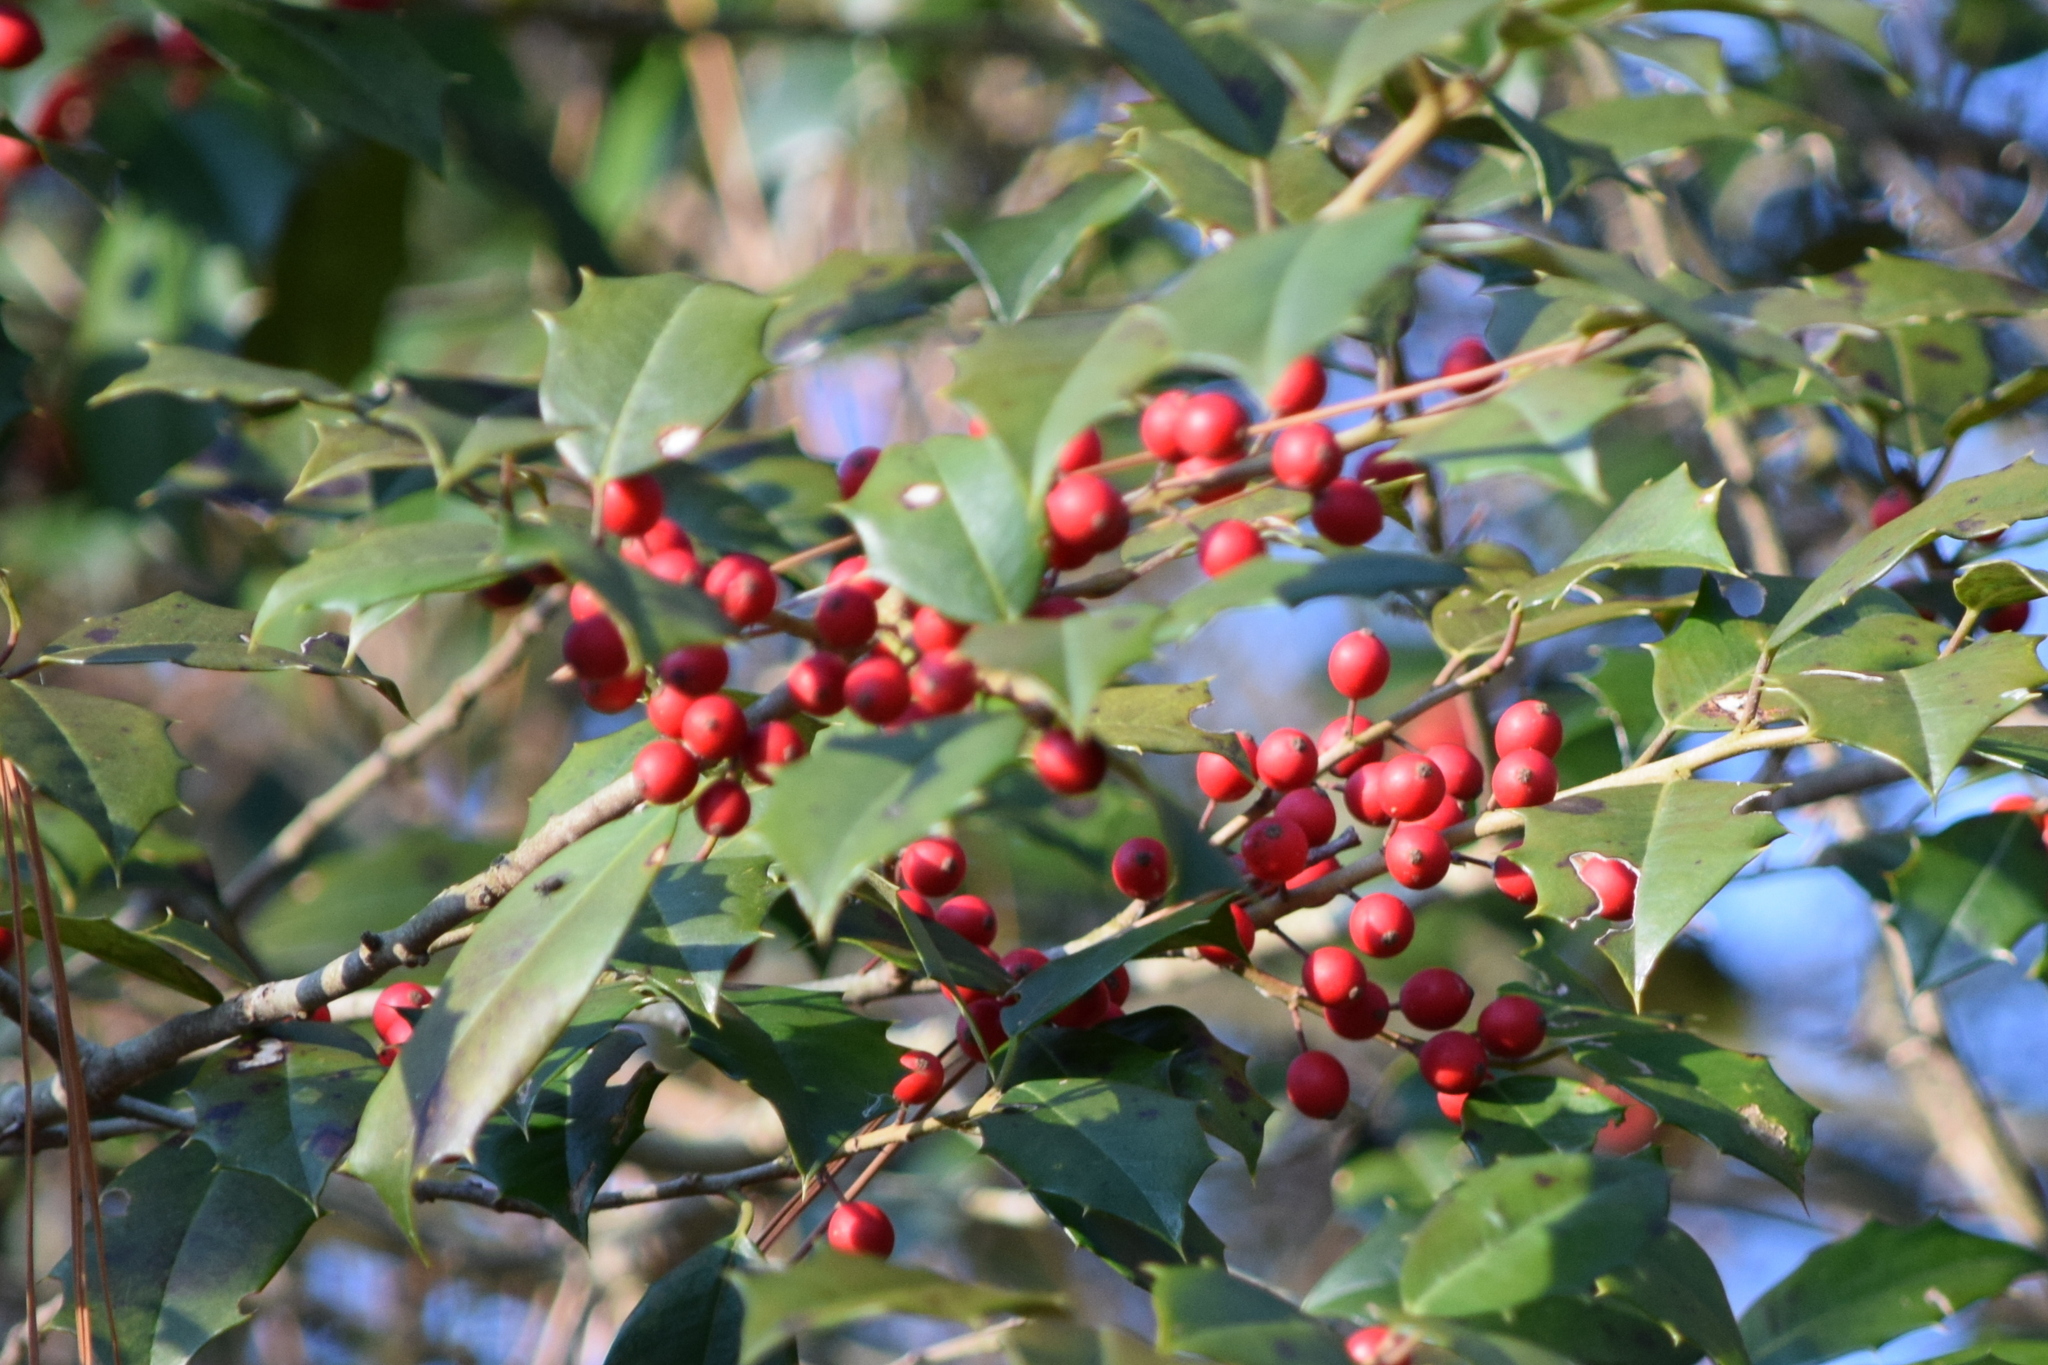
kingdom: Plantae
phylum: Tracheophyta
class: Magnoliopsida
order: Aquifoliales
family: Aquifoliaceae
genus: Ilex
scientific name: Ilex opaca
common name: American holly
